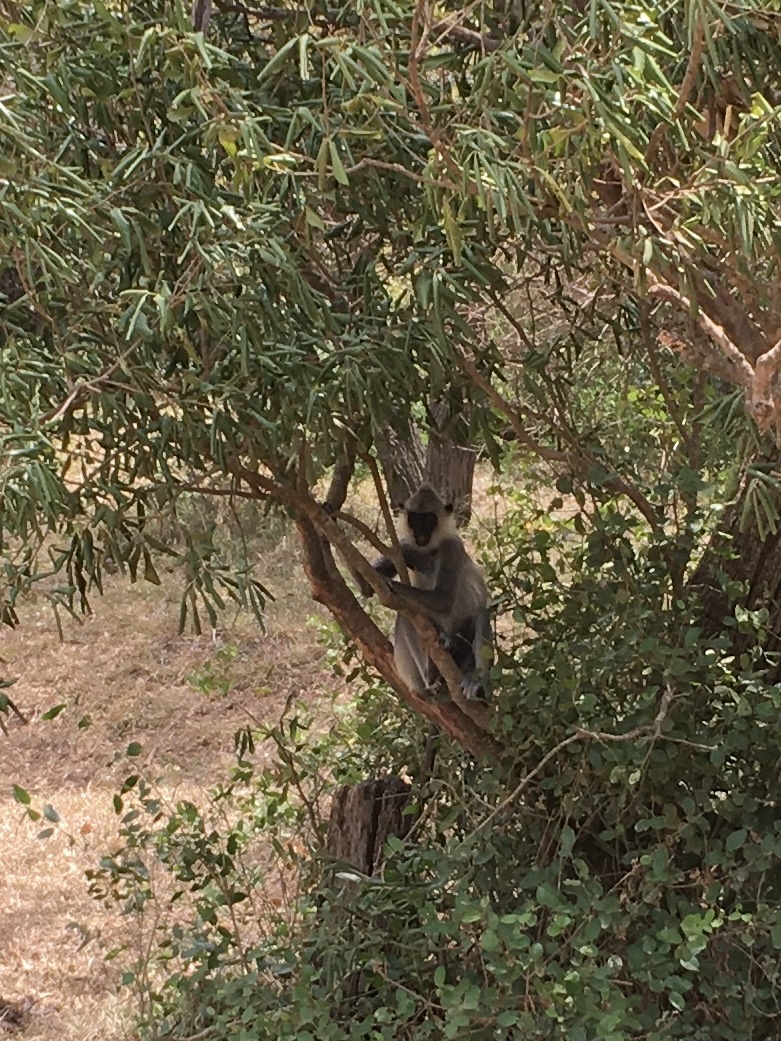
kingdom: Animalia
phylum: Chordata
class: Mammalia
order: Primates
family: Cercopithecidae
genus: Semnopithecus
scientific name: Semnopithecus priam
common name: Tufted gray langur
